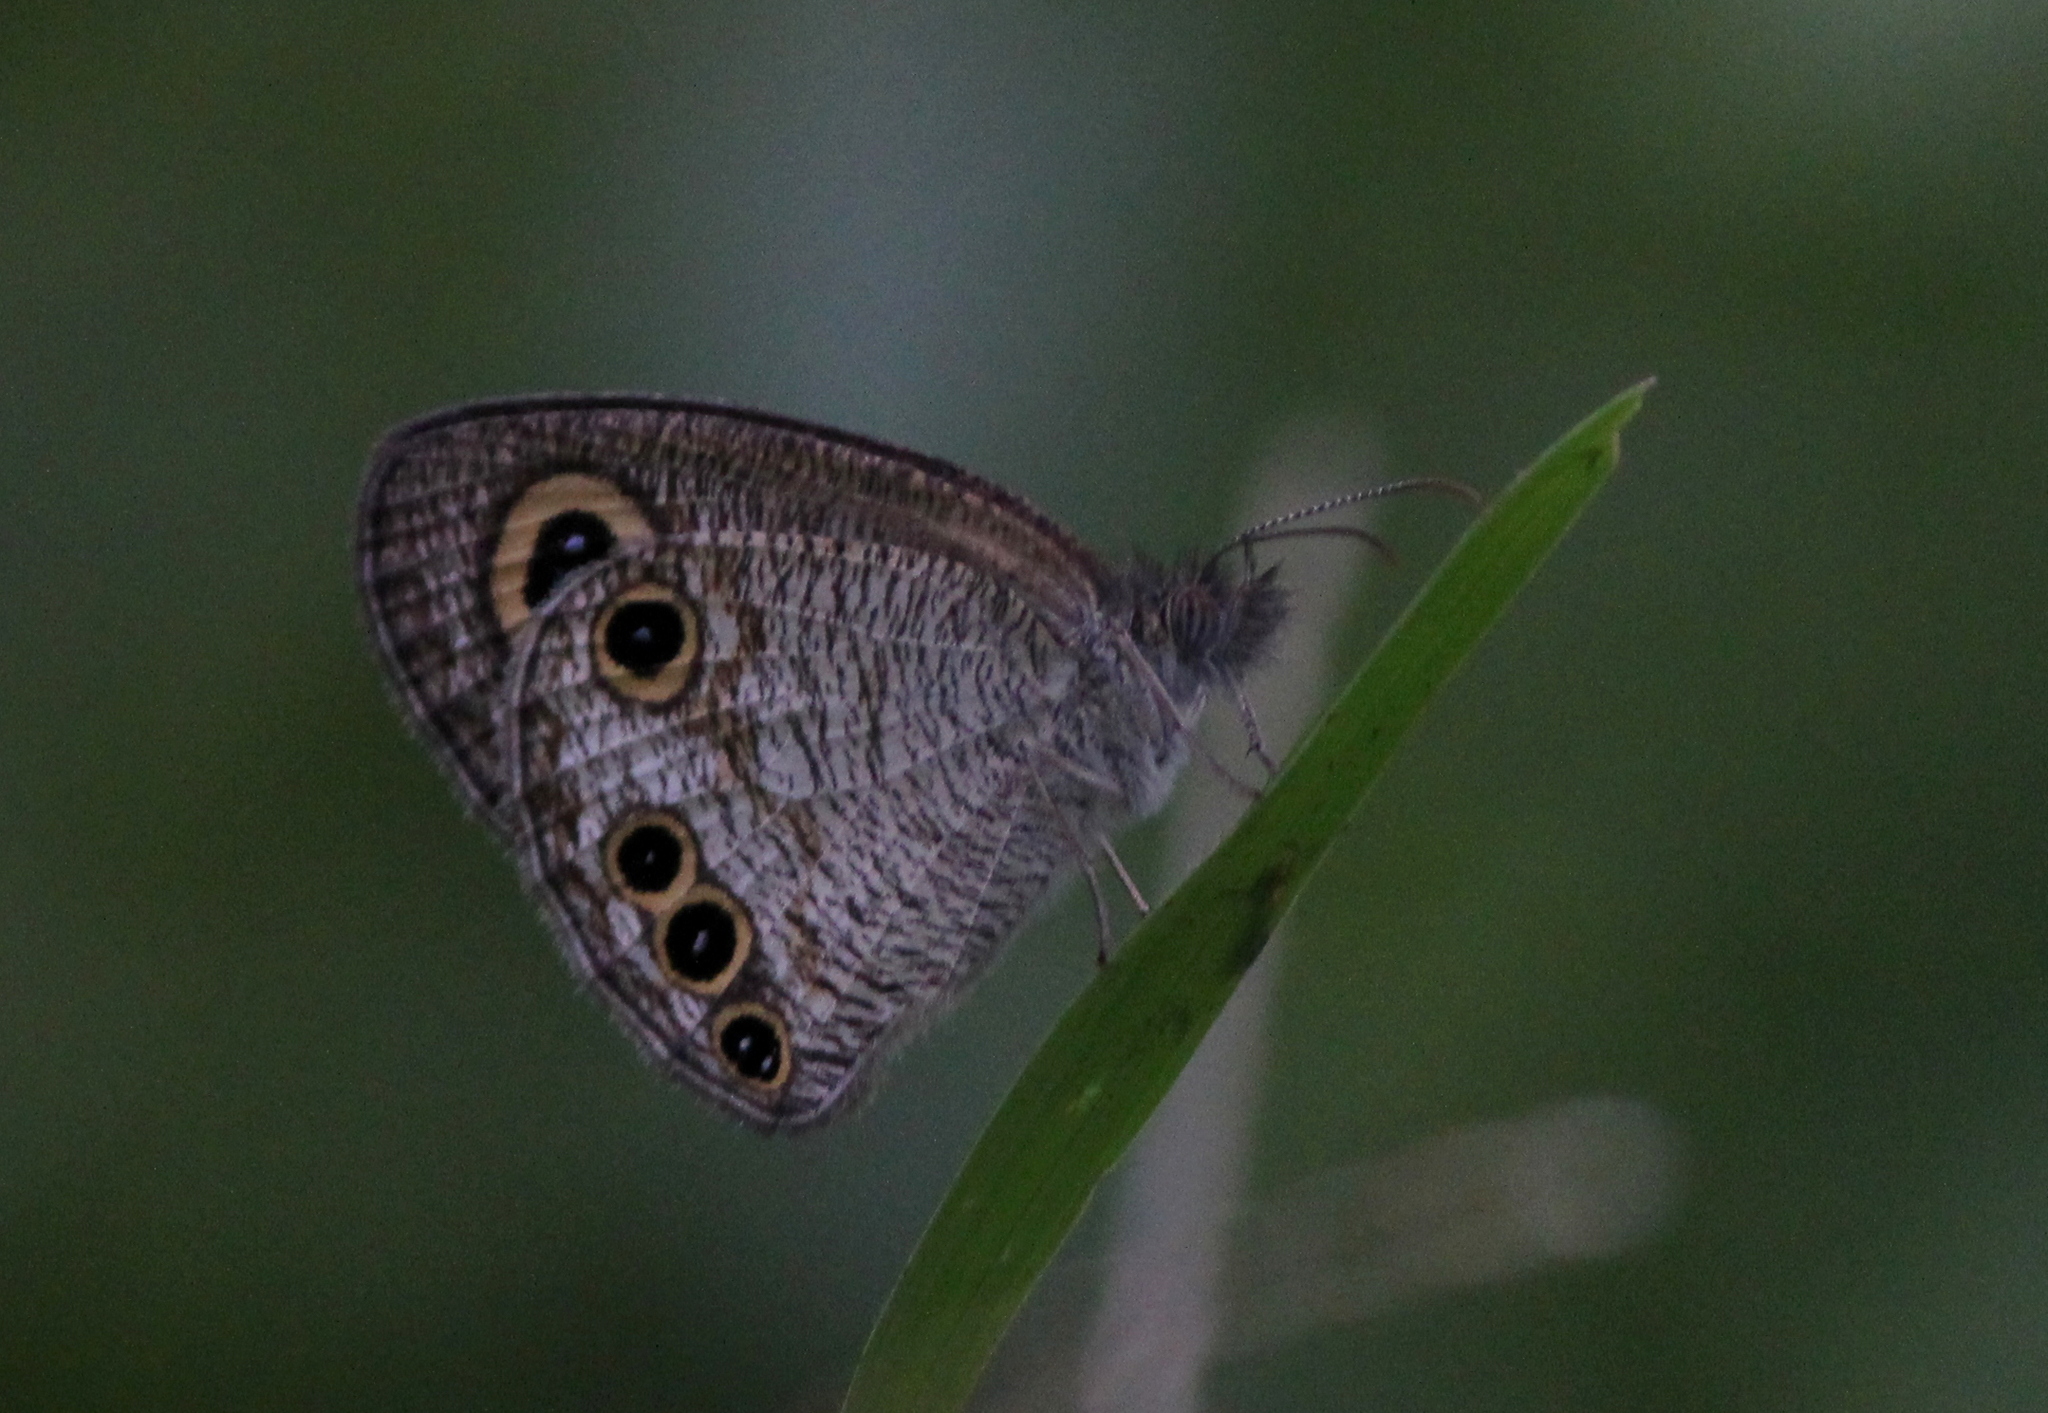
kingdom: Animalia
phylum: Arthropoda
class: Insecta
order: Lepidoptera
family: Nymphalidae
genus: Ypthima
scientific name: Ypthima huebneri
